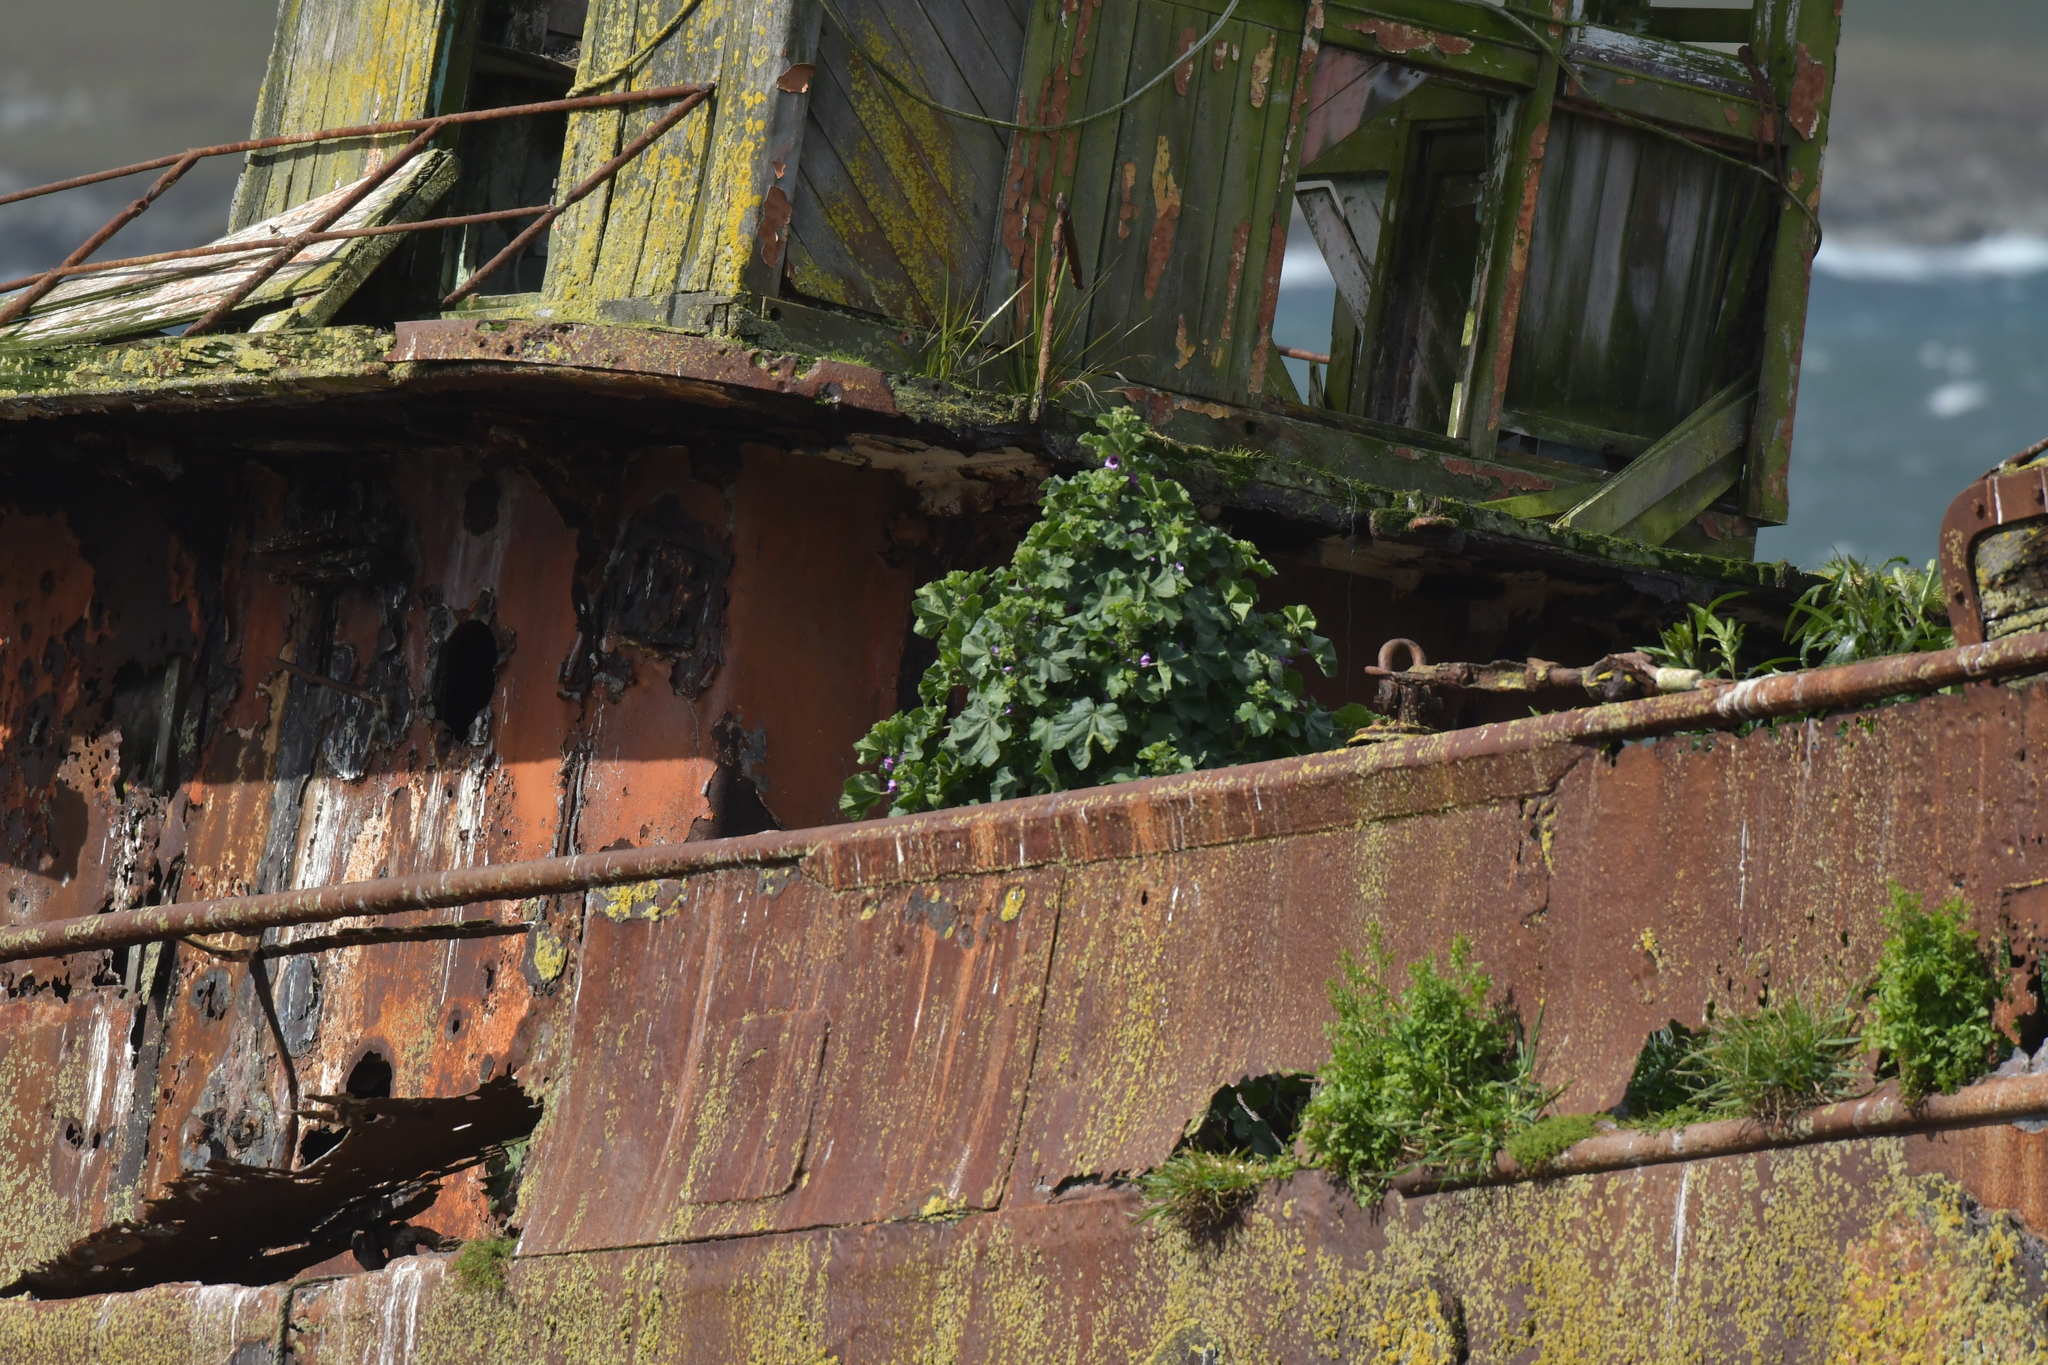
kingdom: Plantae
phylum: Tracheophyta
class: Magnoliopsida
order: Malvales
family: Malvaceae
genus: Malva
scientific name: Malva arborea
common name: Tree mallow
